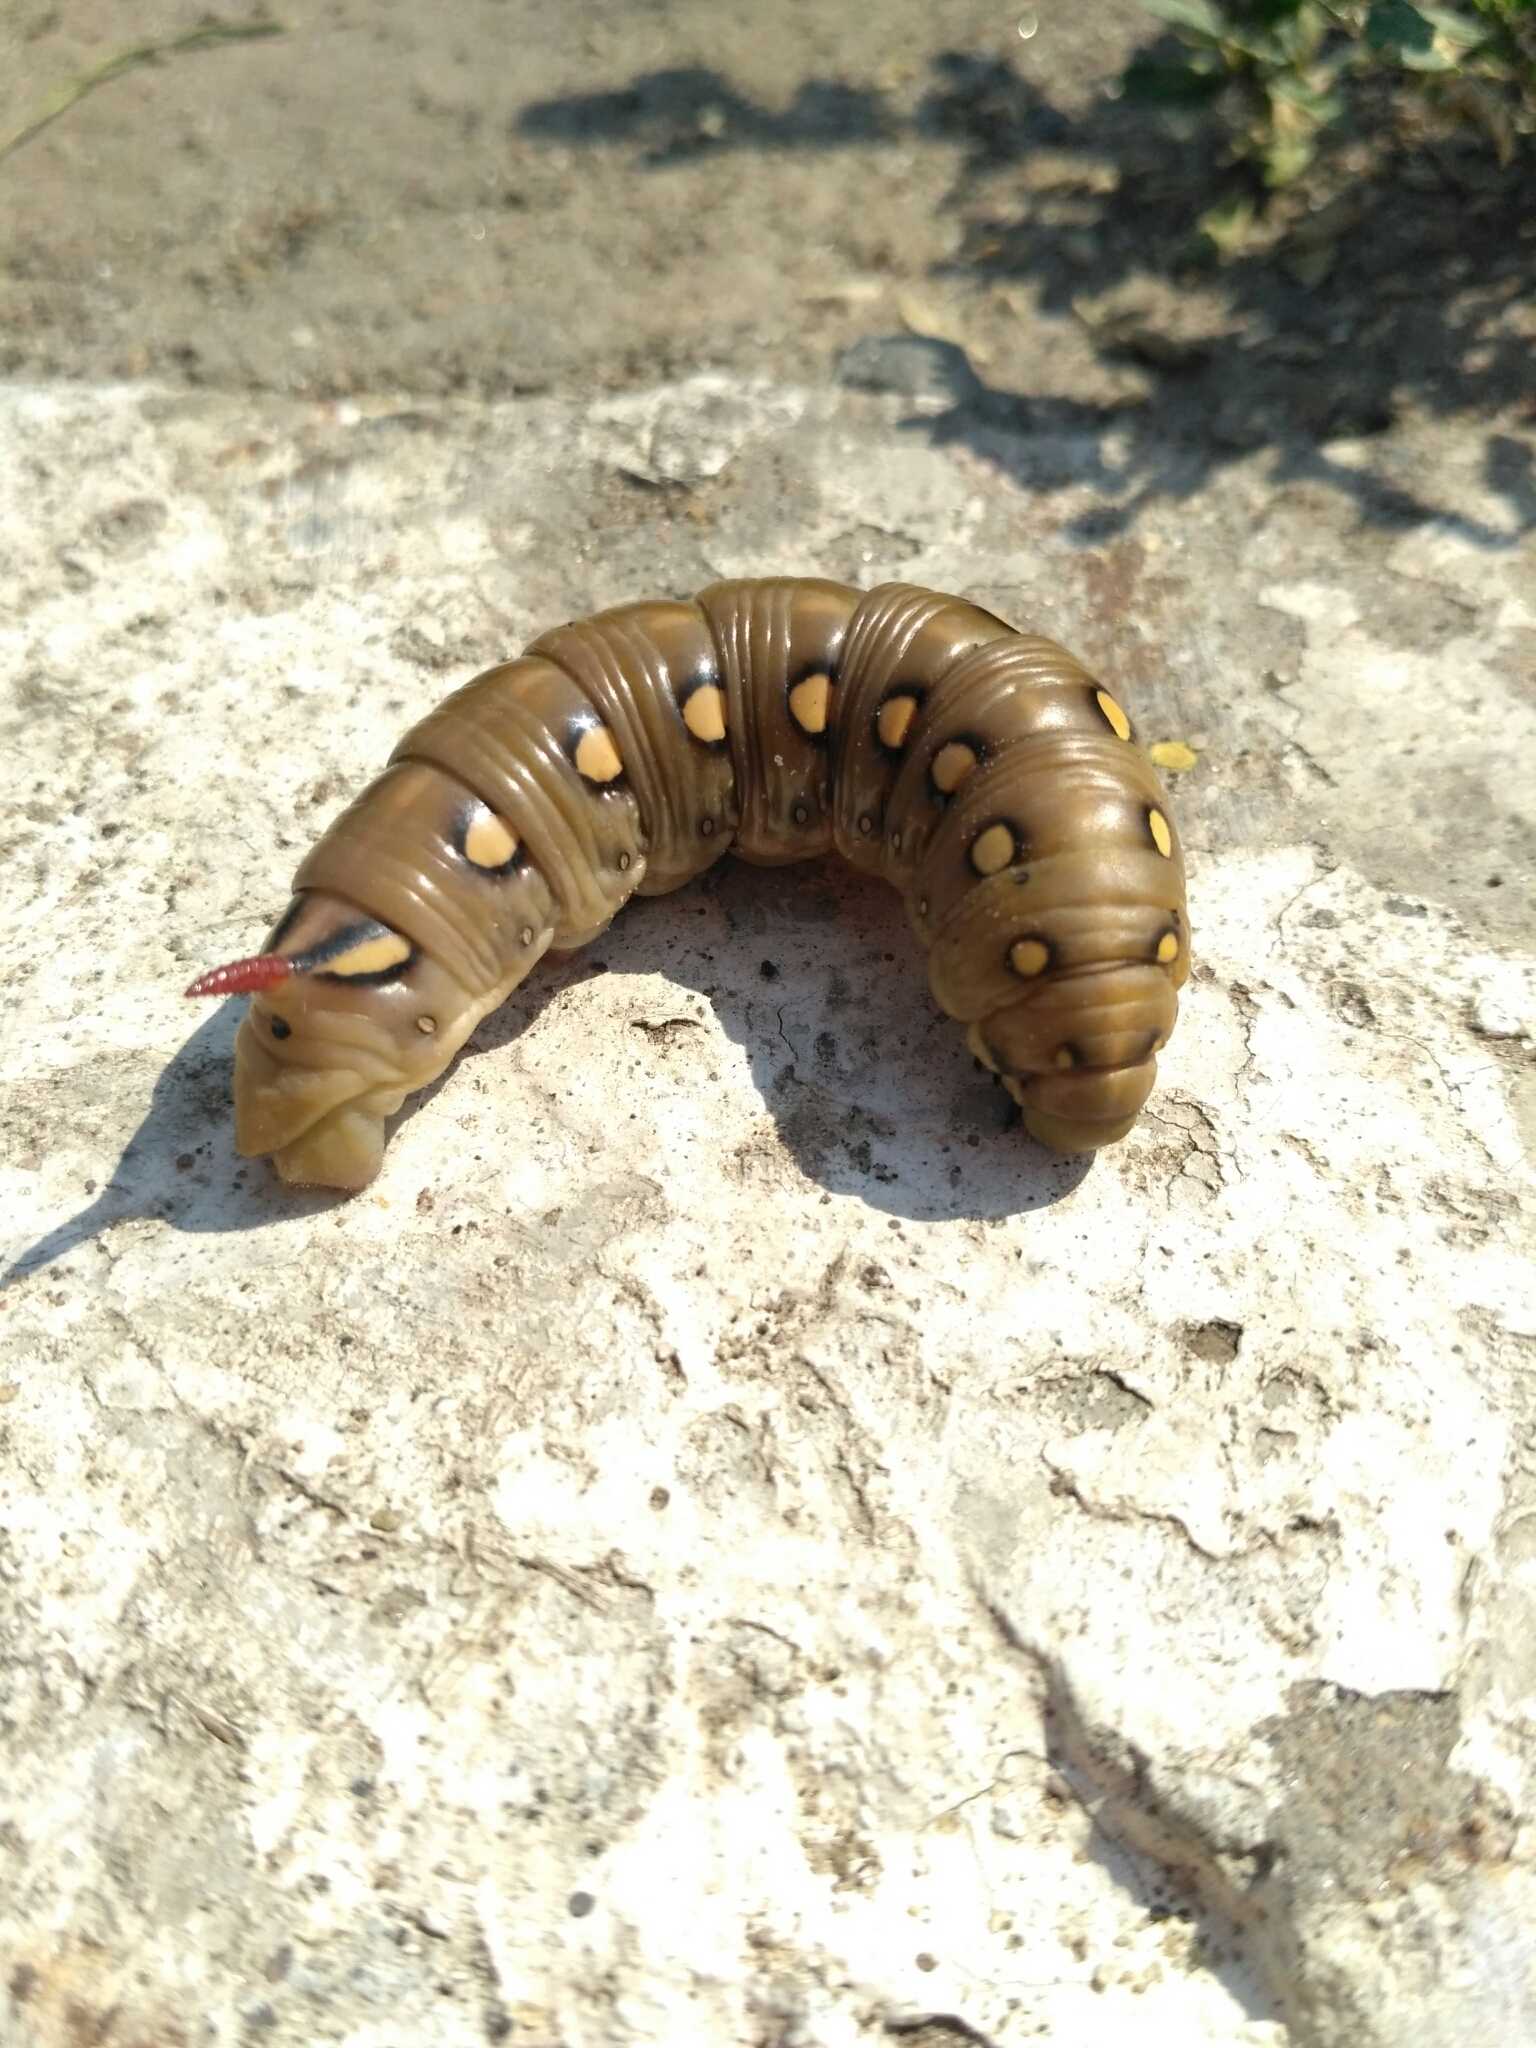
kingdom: Animalia
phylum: Arthropoda
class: Insecta
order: Lepidoptera
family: Sphingidae
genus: Hyles
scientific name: Hyles gallii
